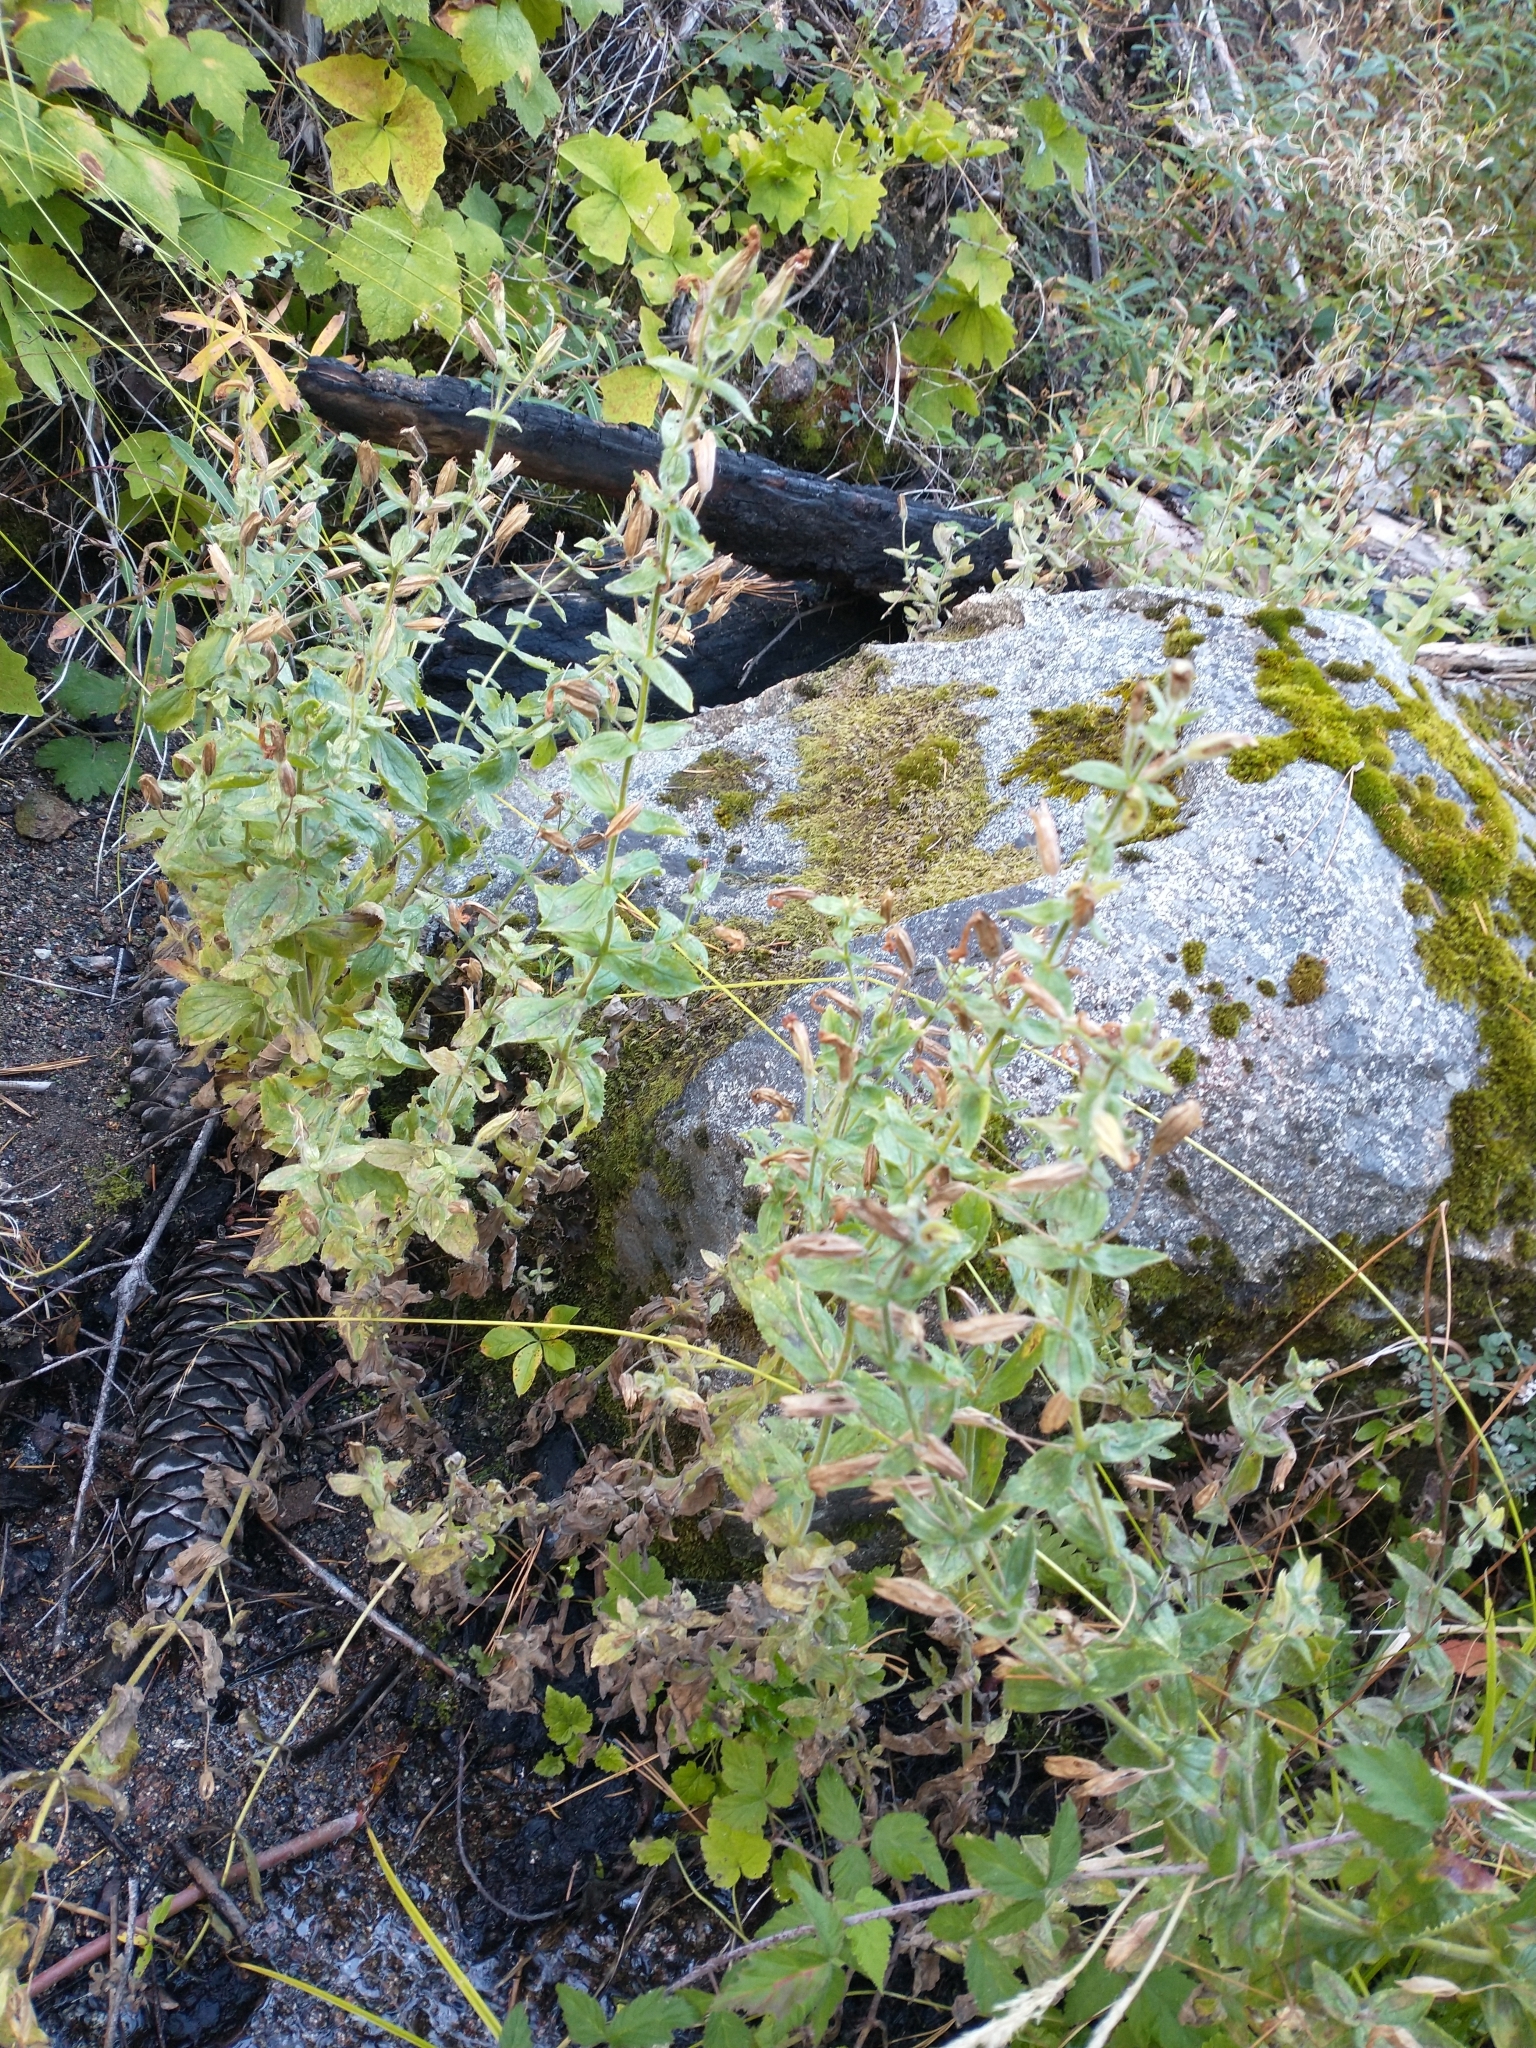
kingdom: Plantae
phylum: Tracheophyta
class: Magnoliopsida
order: Lamiales
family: Phrymaceae
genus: Erythranthe
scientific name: Erythranthe cardinalis
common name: Scarlet monkey-flower
